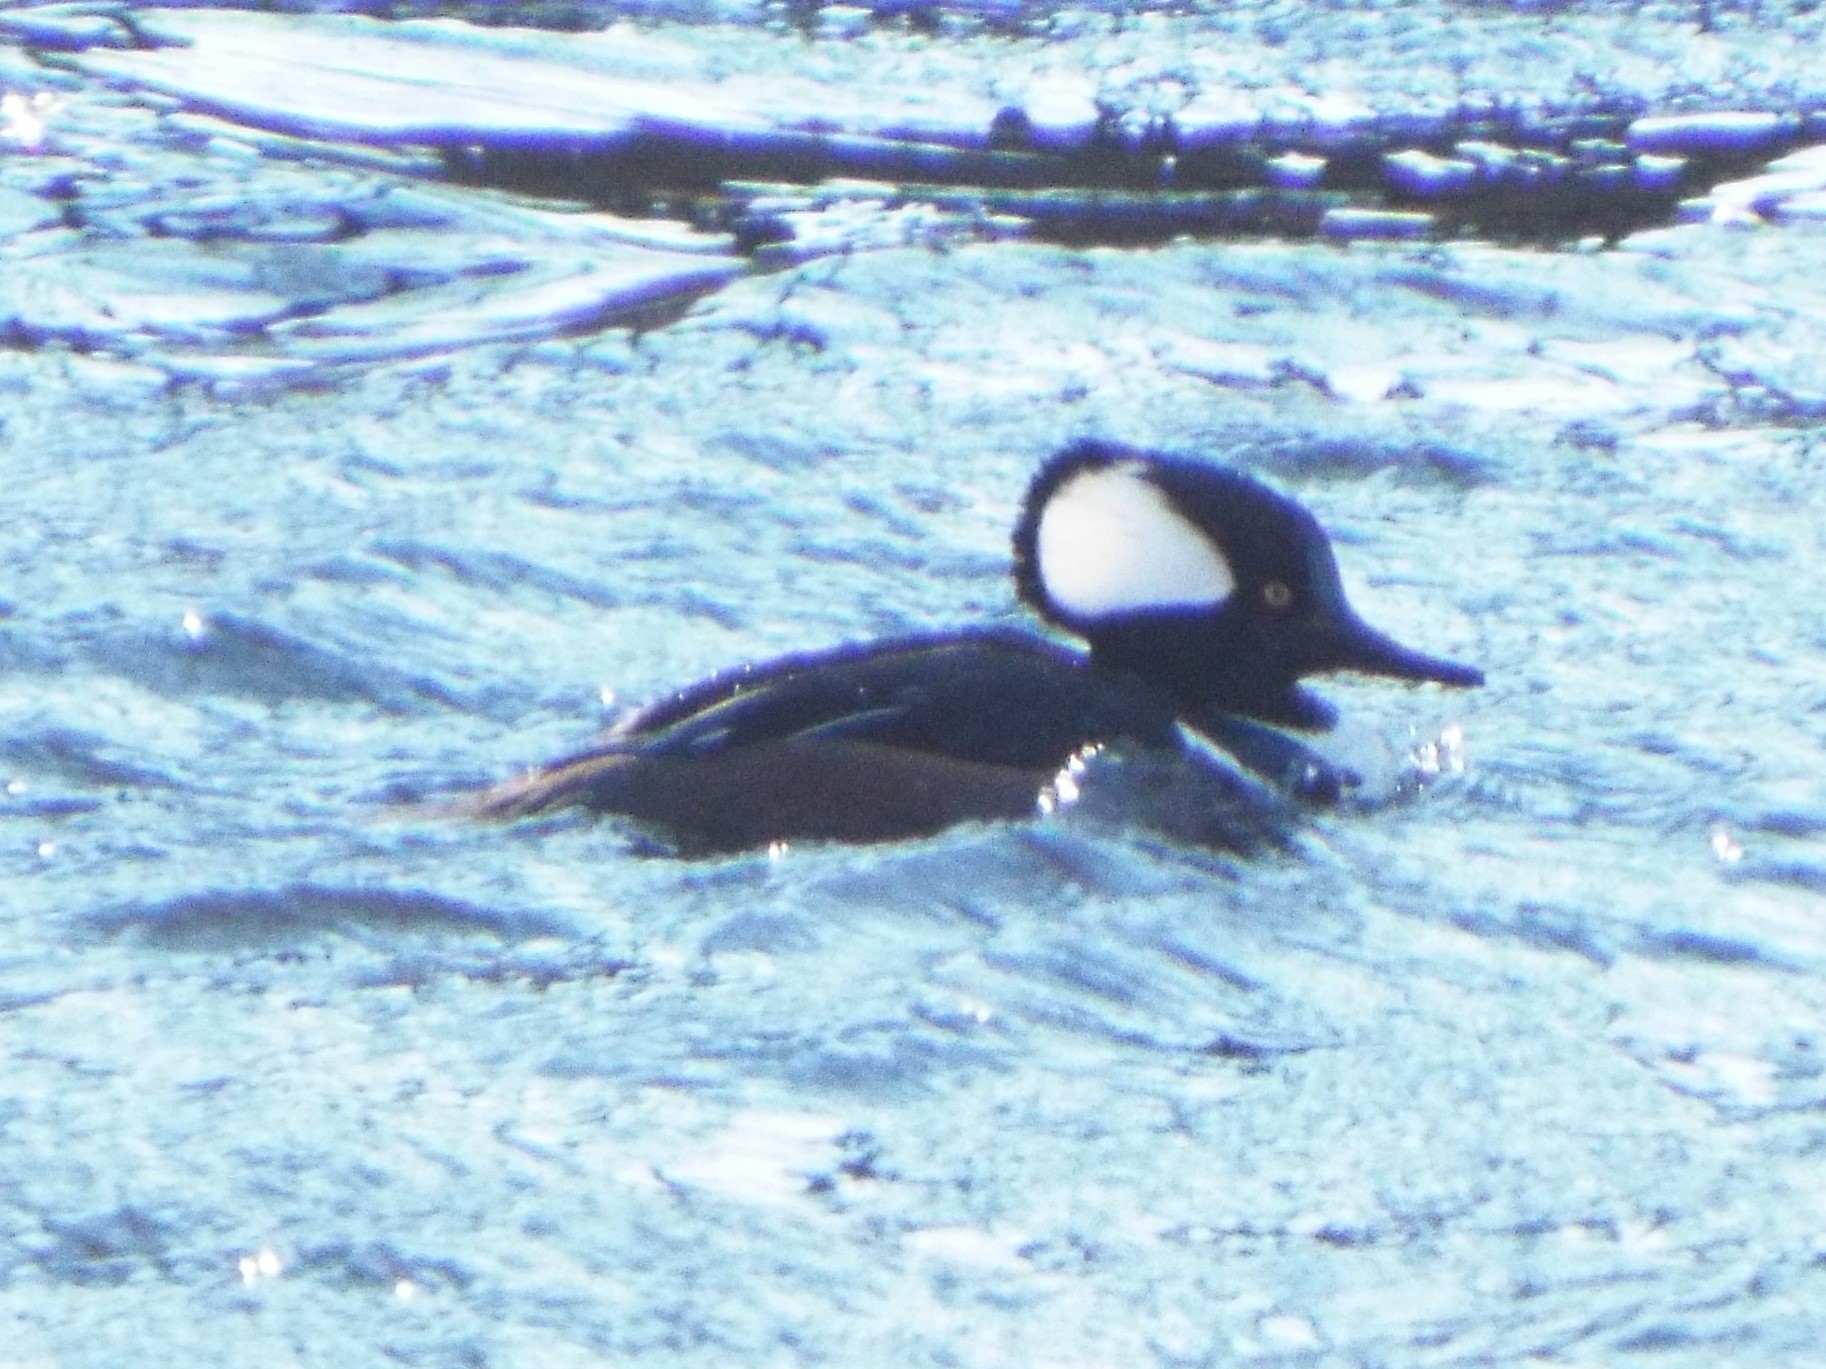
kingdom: Animalia
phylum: Chordata
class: Aves
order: Anseriformes
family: Anatidae
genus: Lophodytes
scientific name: Lophodytes cucullatus
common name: Hooded merganser
